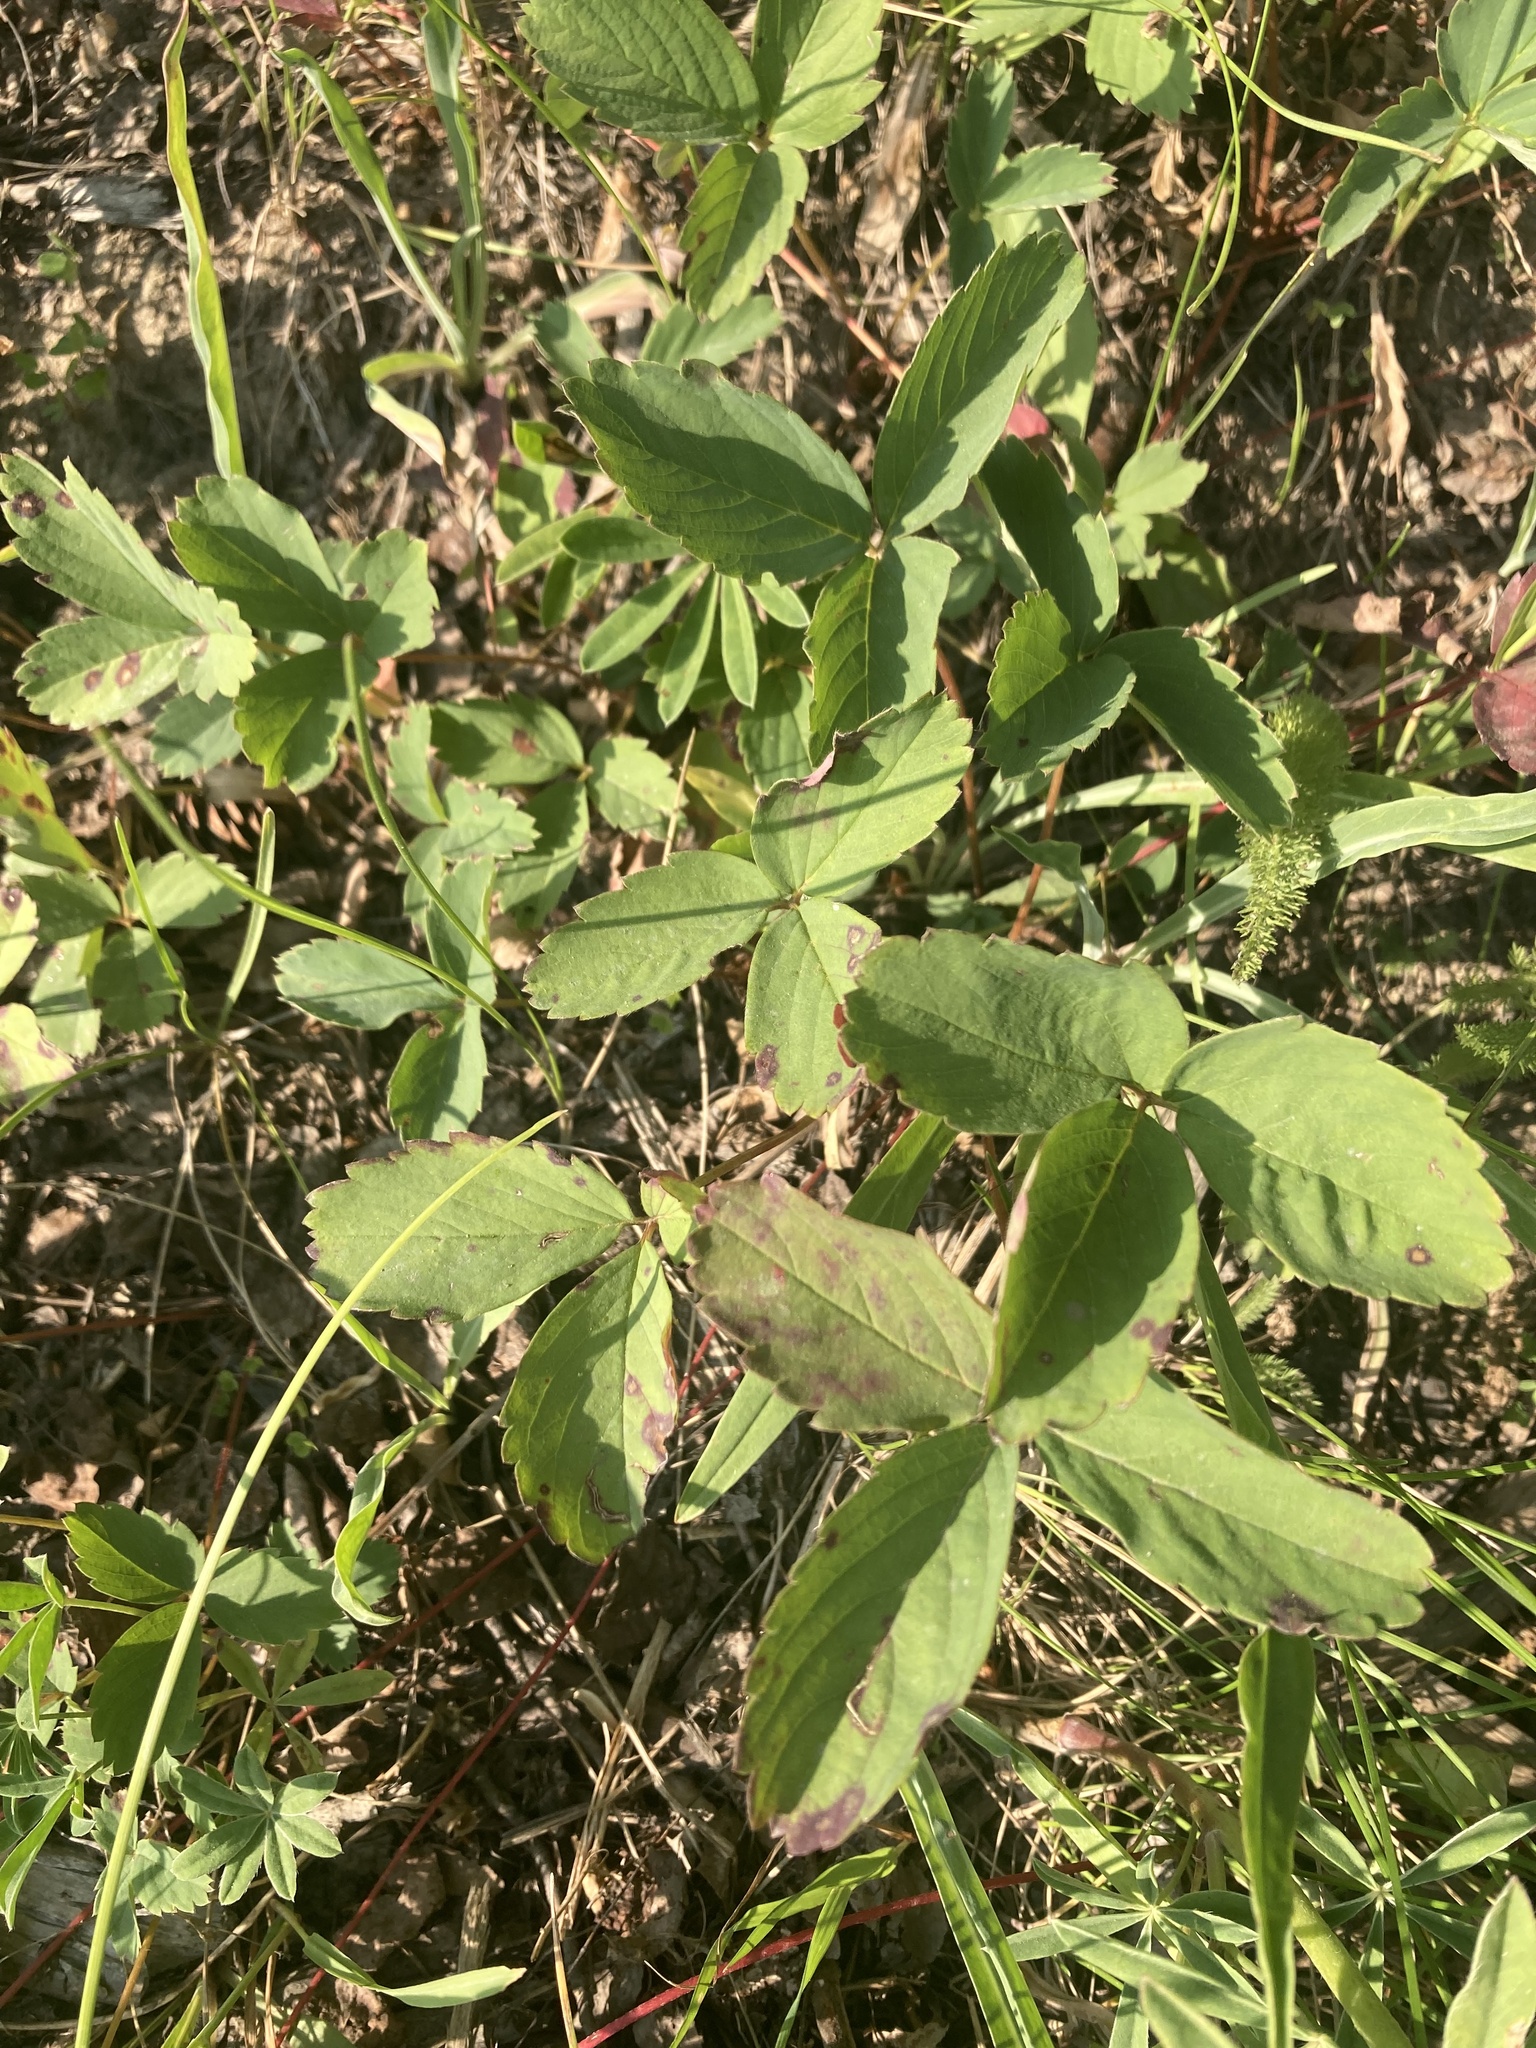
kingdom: Plantae
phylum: Tracheophyta
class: Magnoliopsida
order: Rosales
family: Rosaceae
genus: Fragaria
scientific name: Fragaria virginiana
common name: Thickleaved wild strawberry
